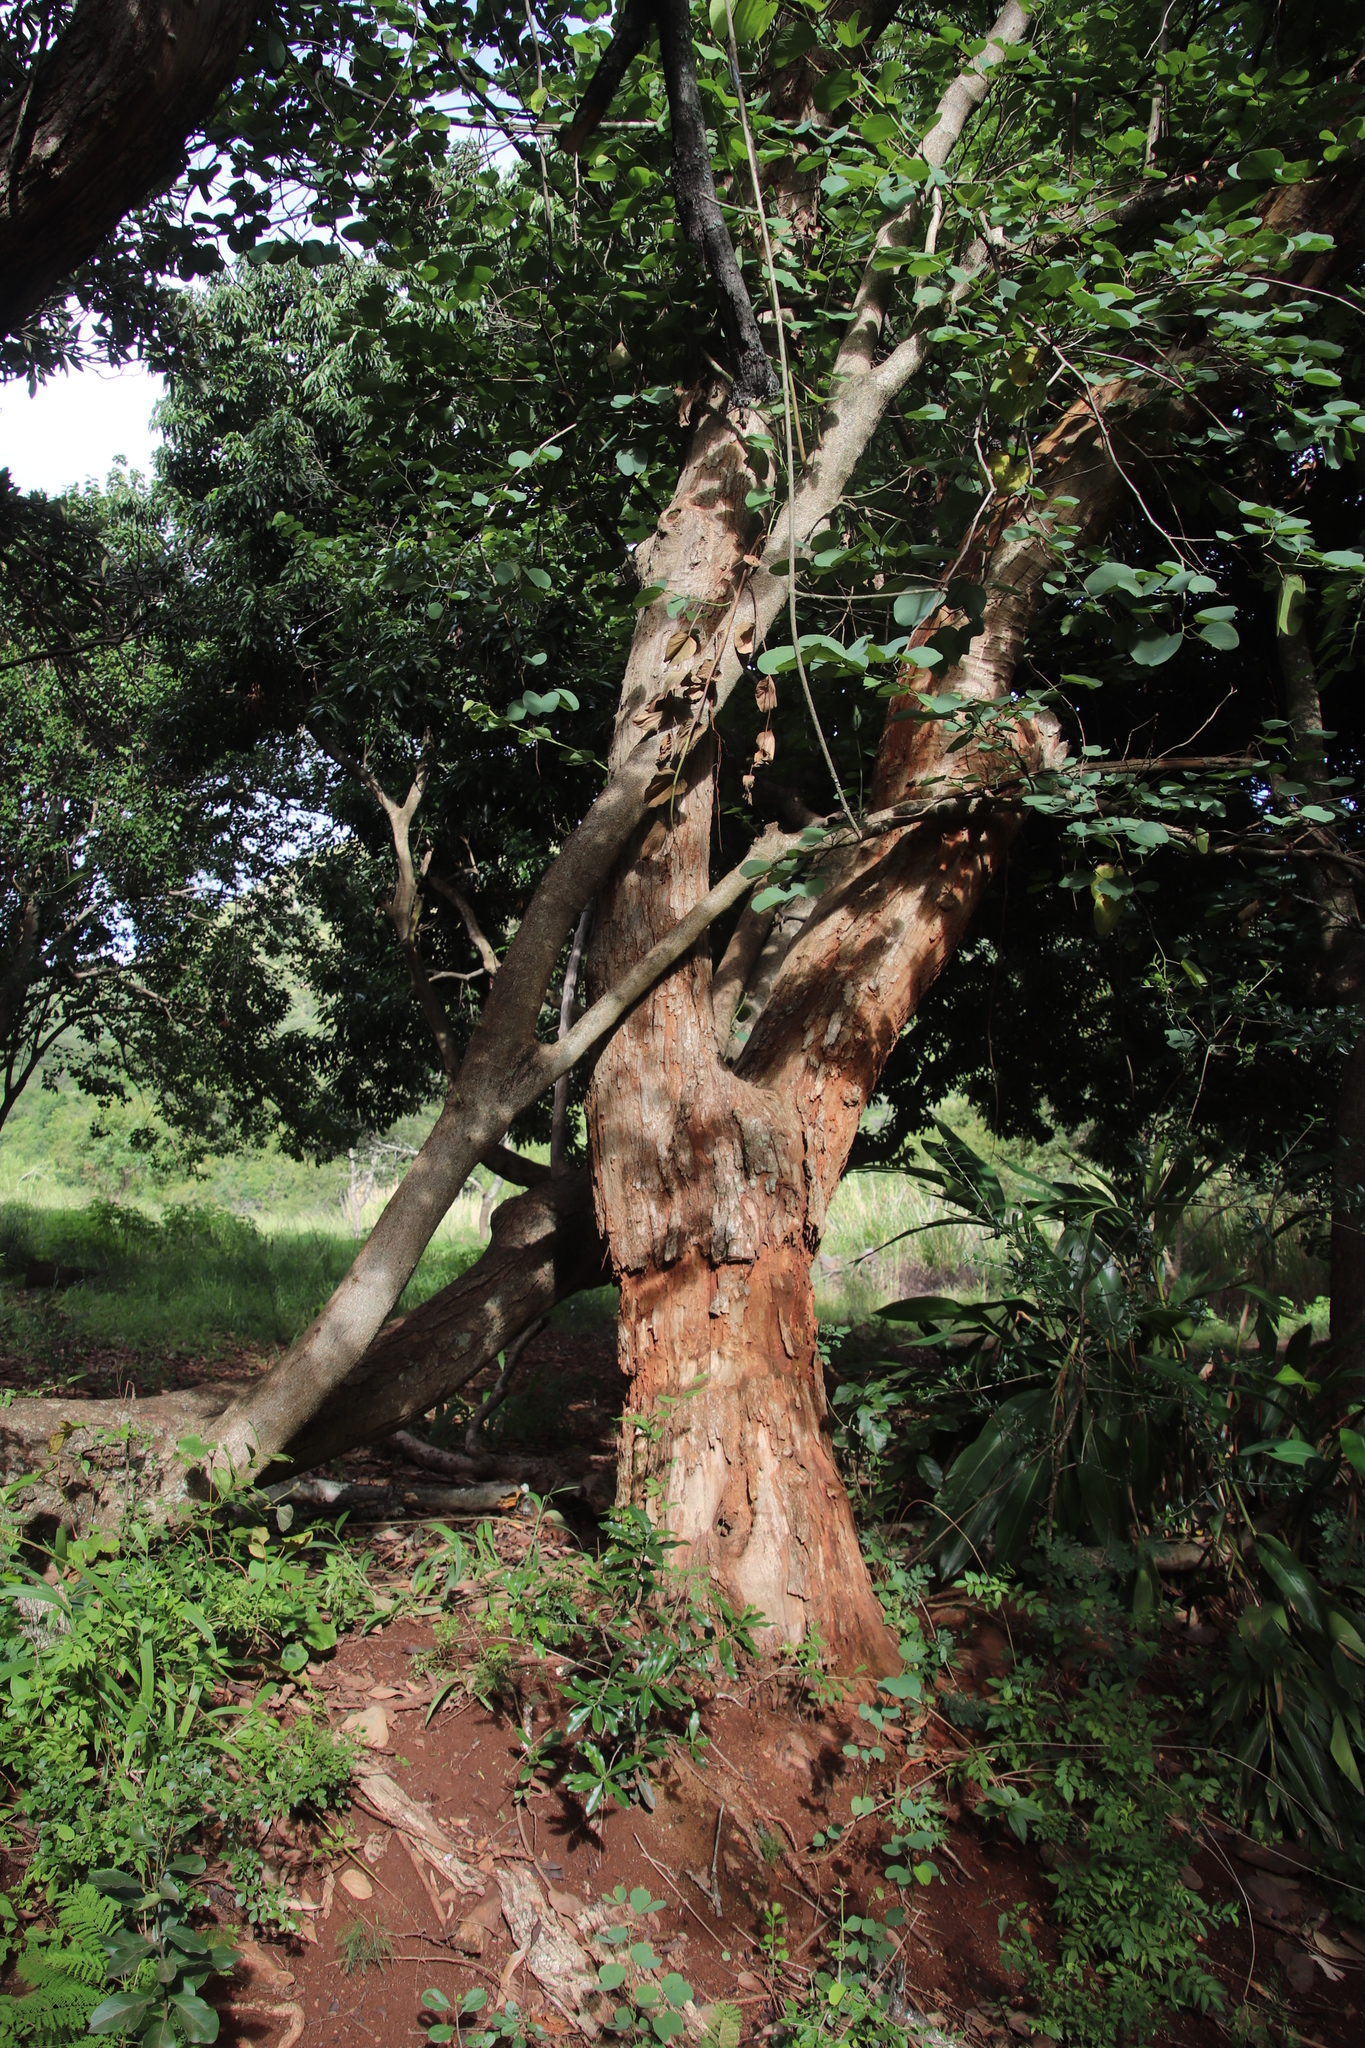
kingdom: Plantae
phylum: Tracheophyta
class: Magnoliopsida
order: Fabales
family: Fabaceae
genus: Bauhinia
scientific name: Bauhinia variegata
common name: Mountain ebony
